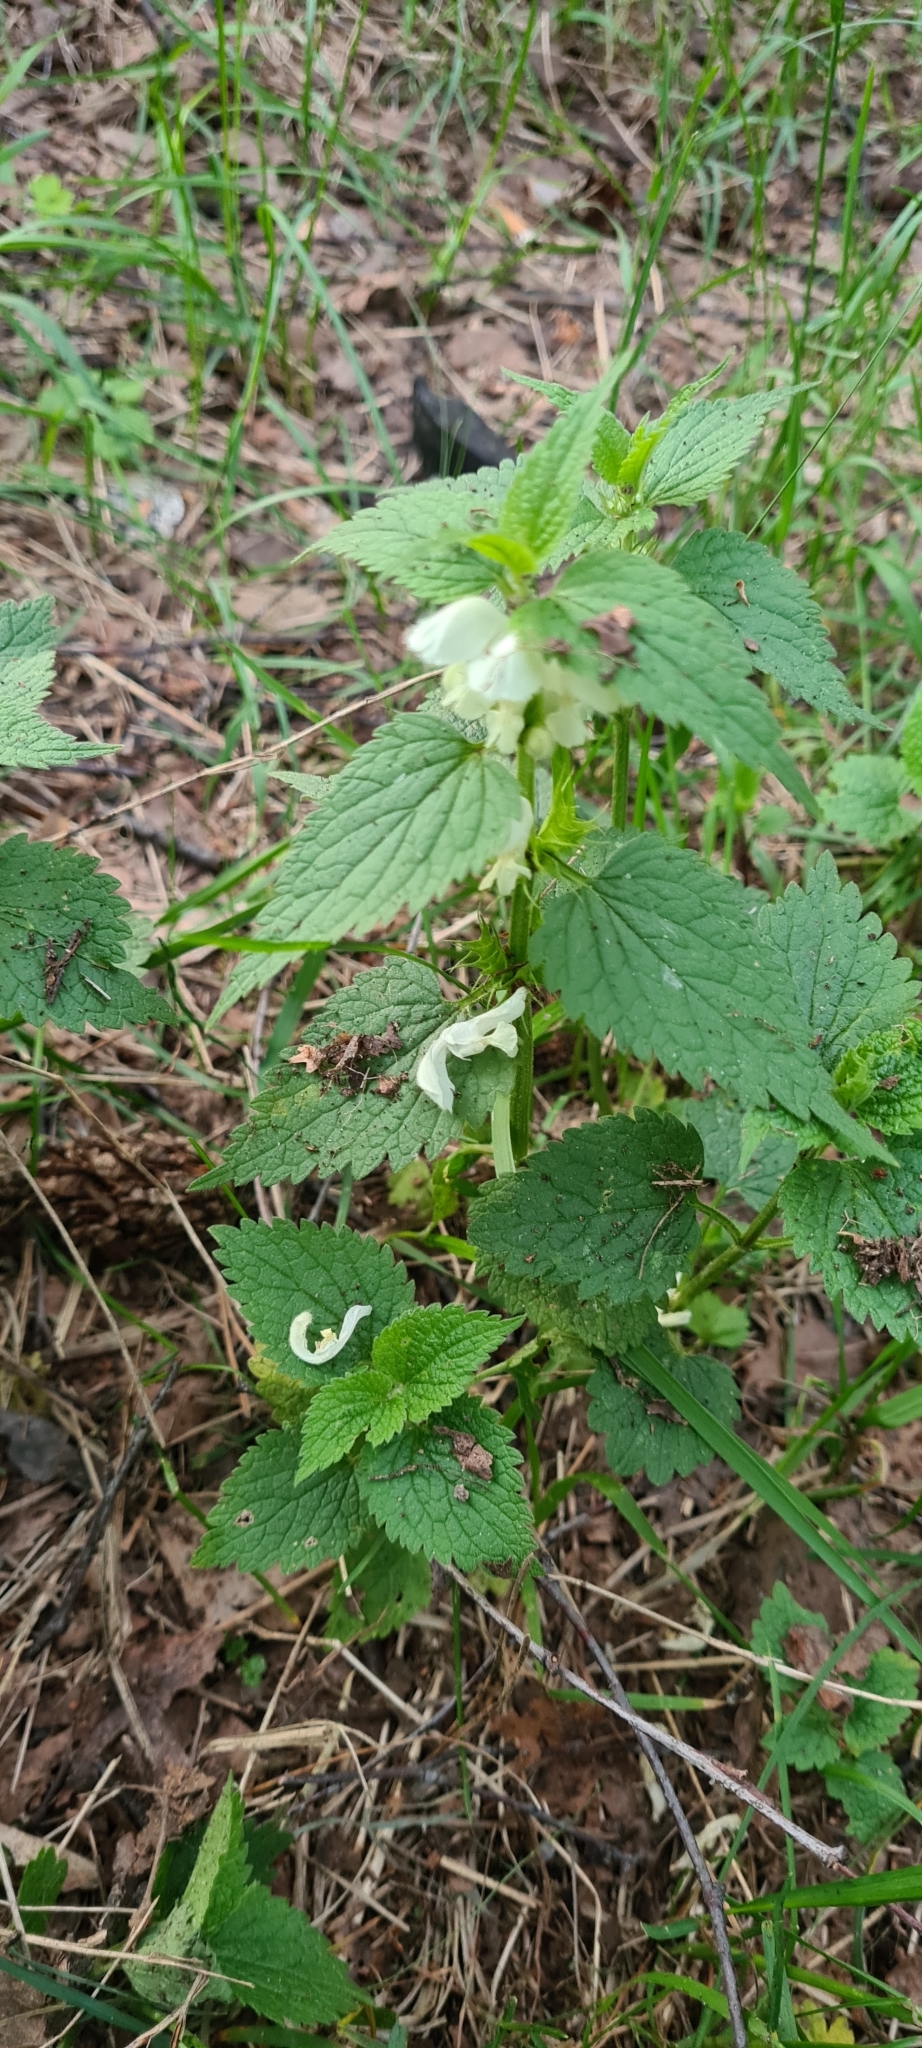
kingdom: Plantae
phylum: Tracheophyta
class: Magnoliopsida
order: Lamiales
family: Lamiaceae
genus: Lamium
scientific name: Lamium album
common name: White dead-nettle
